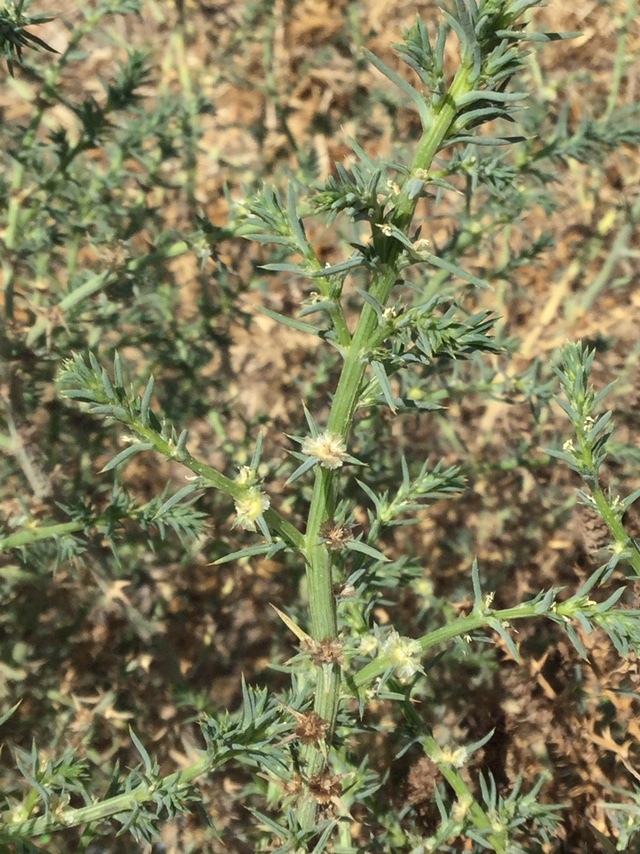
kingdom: Plantae
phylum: Tracheophyta
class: Magnoliopsida
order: Caryophyllales
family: Amaranthaceae
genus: Salsola
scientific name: Salsola tragus
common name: Prickly russian thistle
